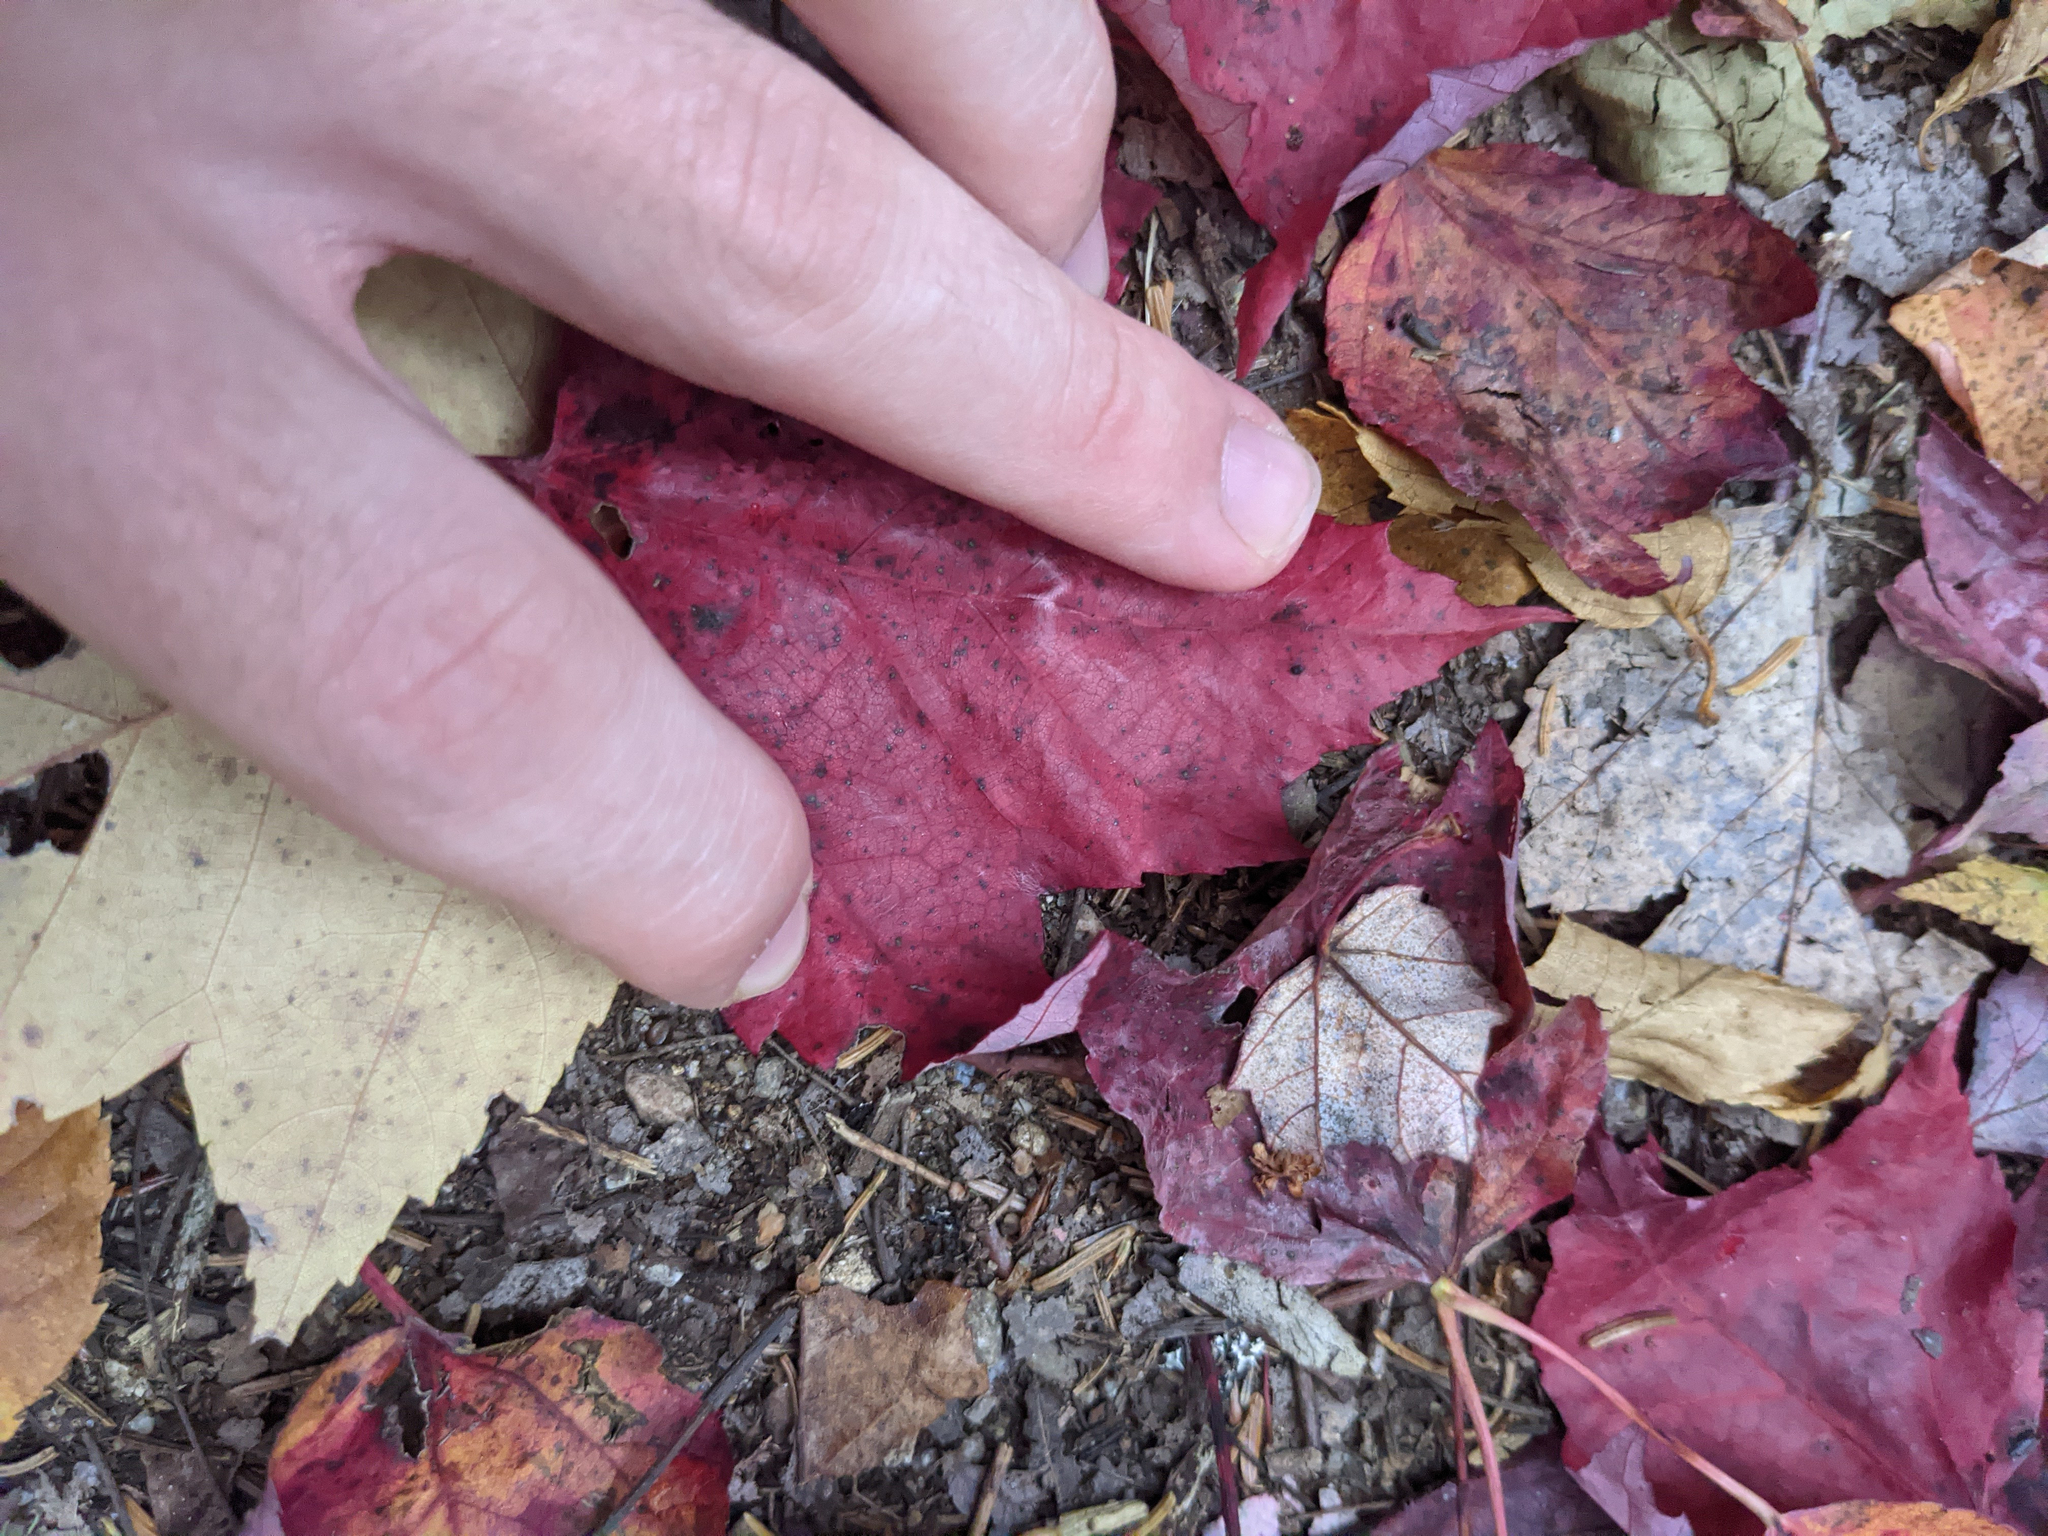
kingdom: Plantae
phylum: Tracheophyta
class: Magnoliopsida
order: Sapindales
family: Sapindaceae
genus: Acer
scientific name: Acer rubrum
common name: Red maple
